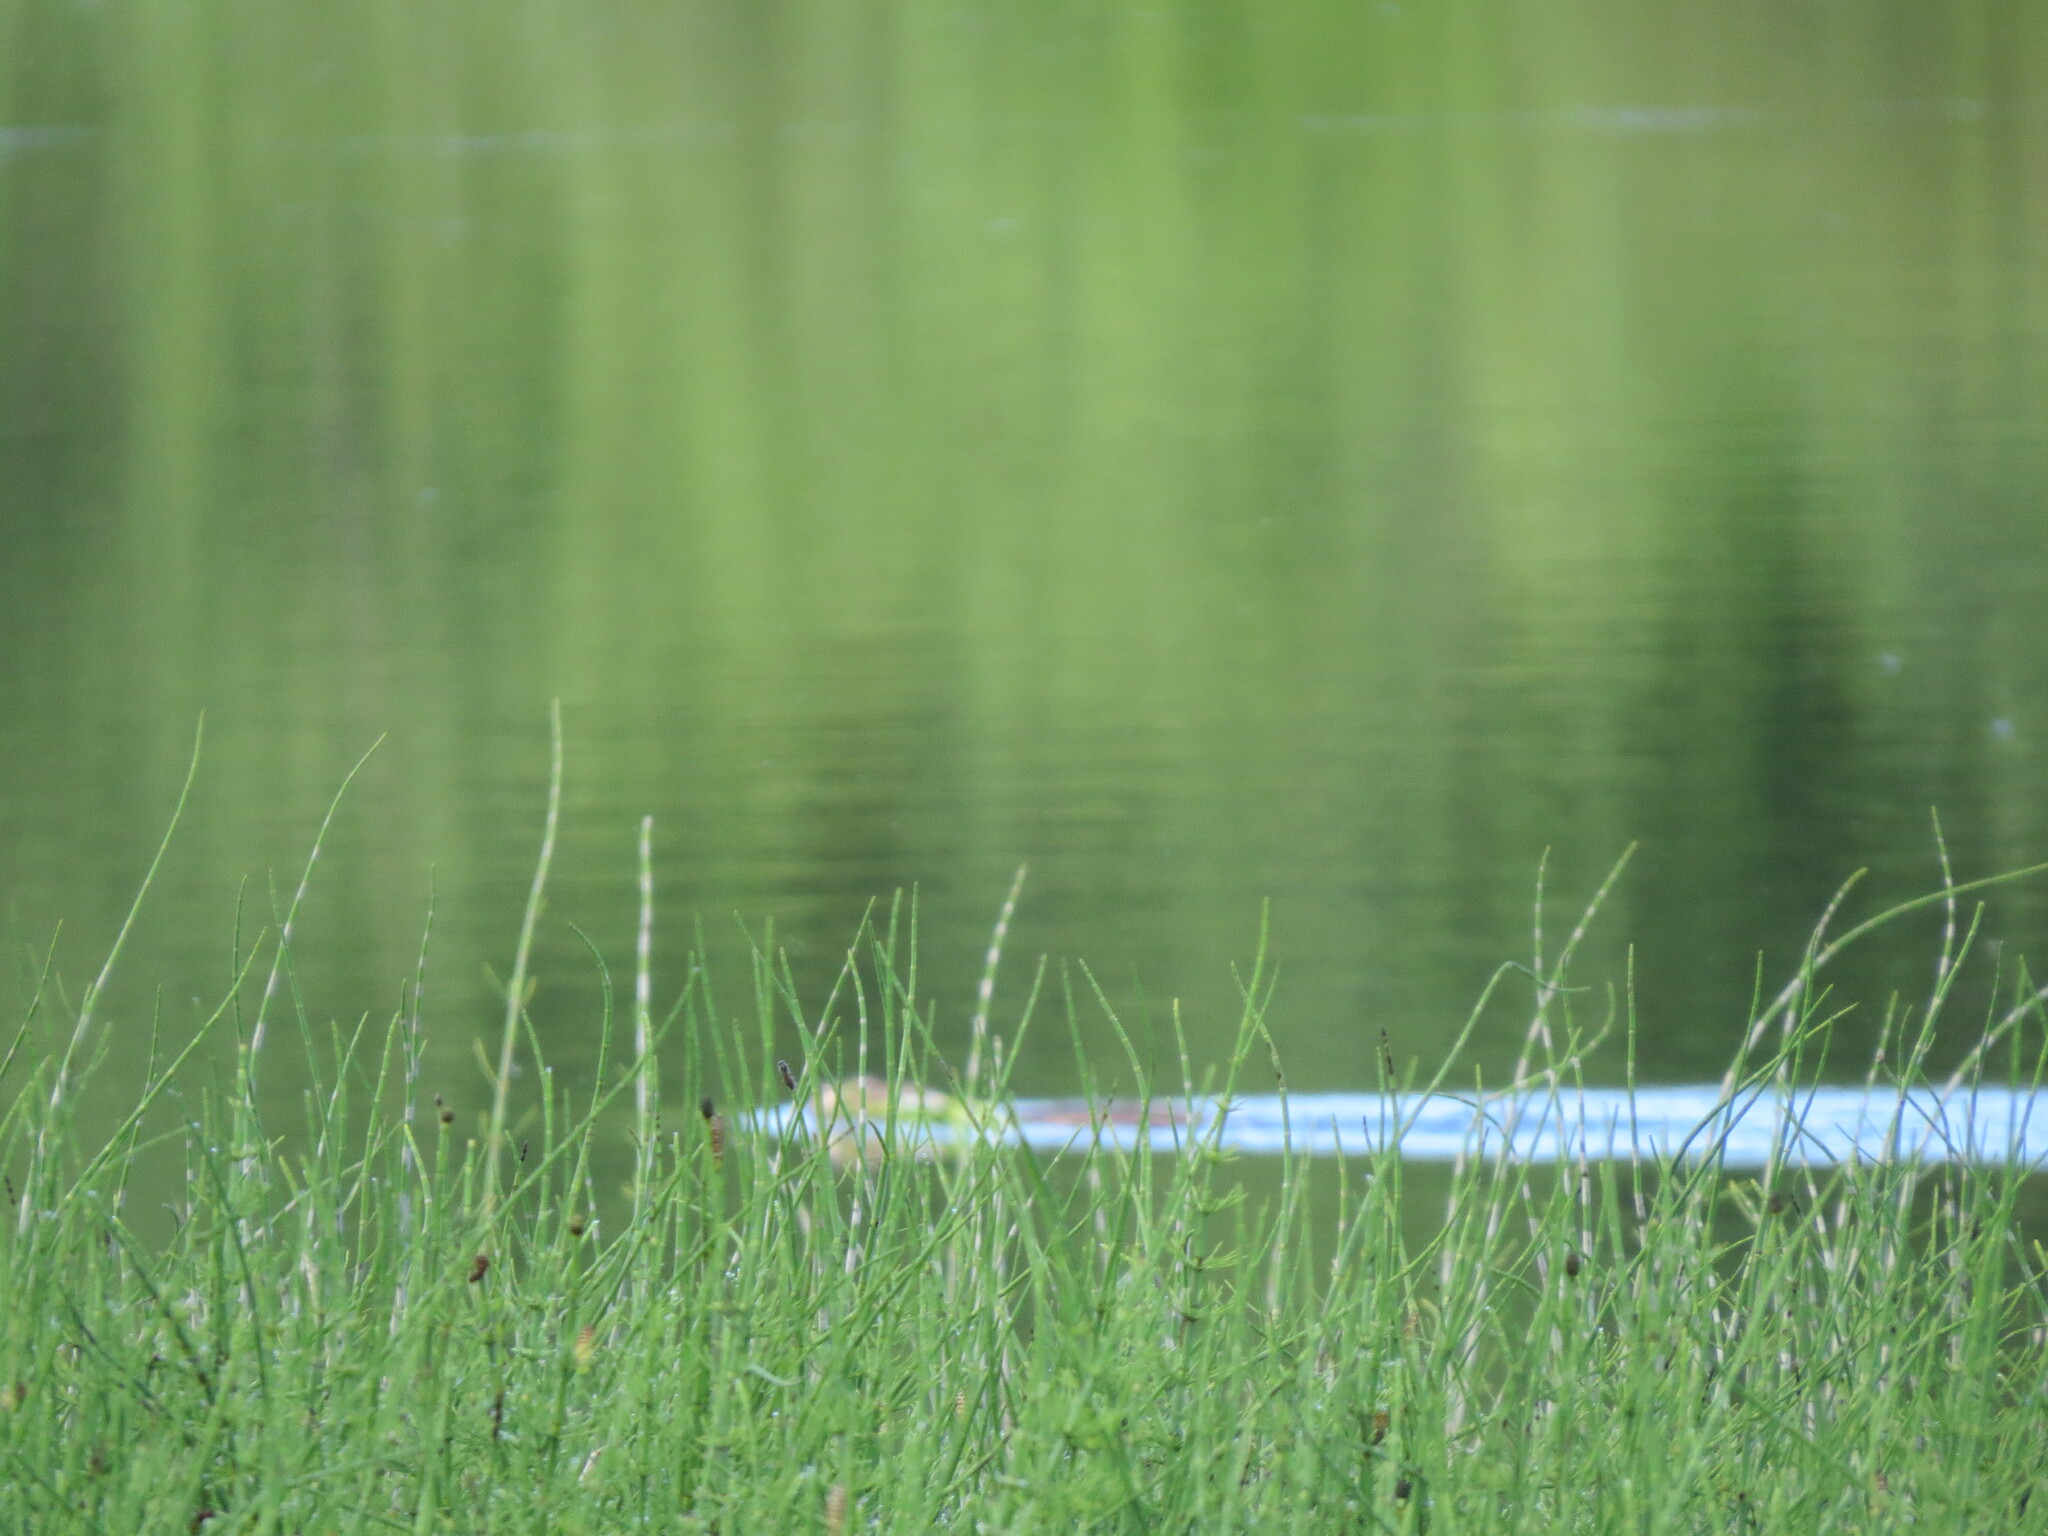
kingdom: Animalia
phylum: Chordata
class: Mammalia
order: Rodentia
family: Cricetidae
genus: Ondatra
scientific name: Ondatra zibethicus
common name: Muskrat
